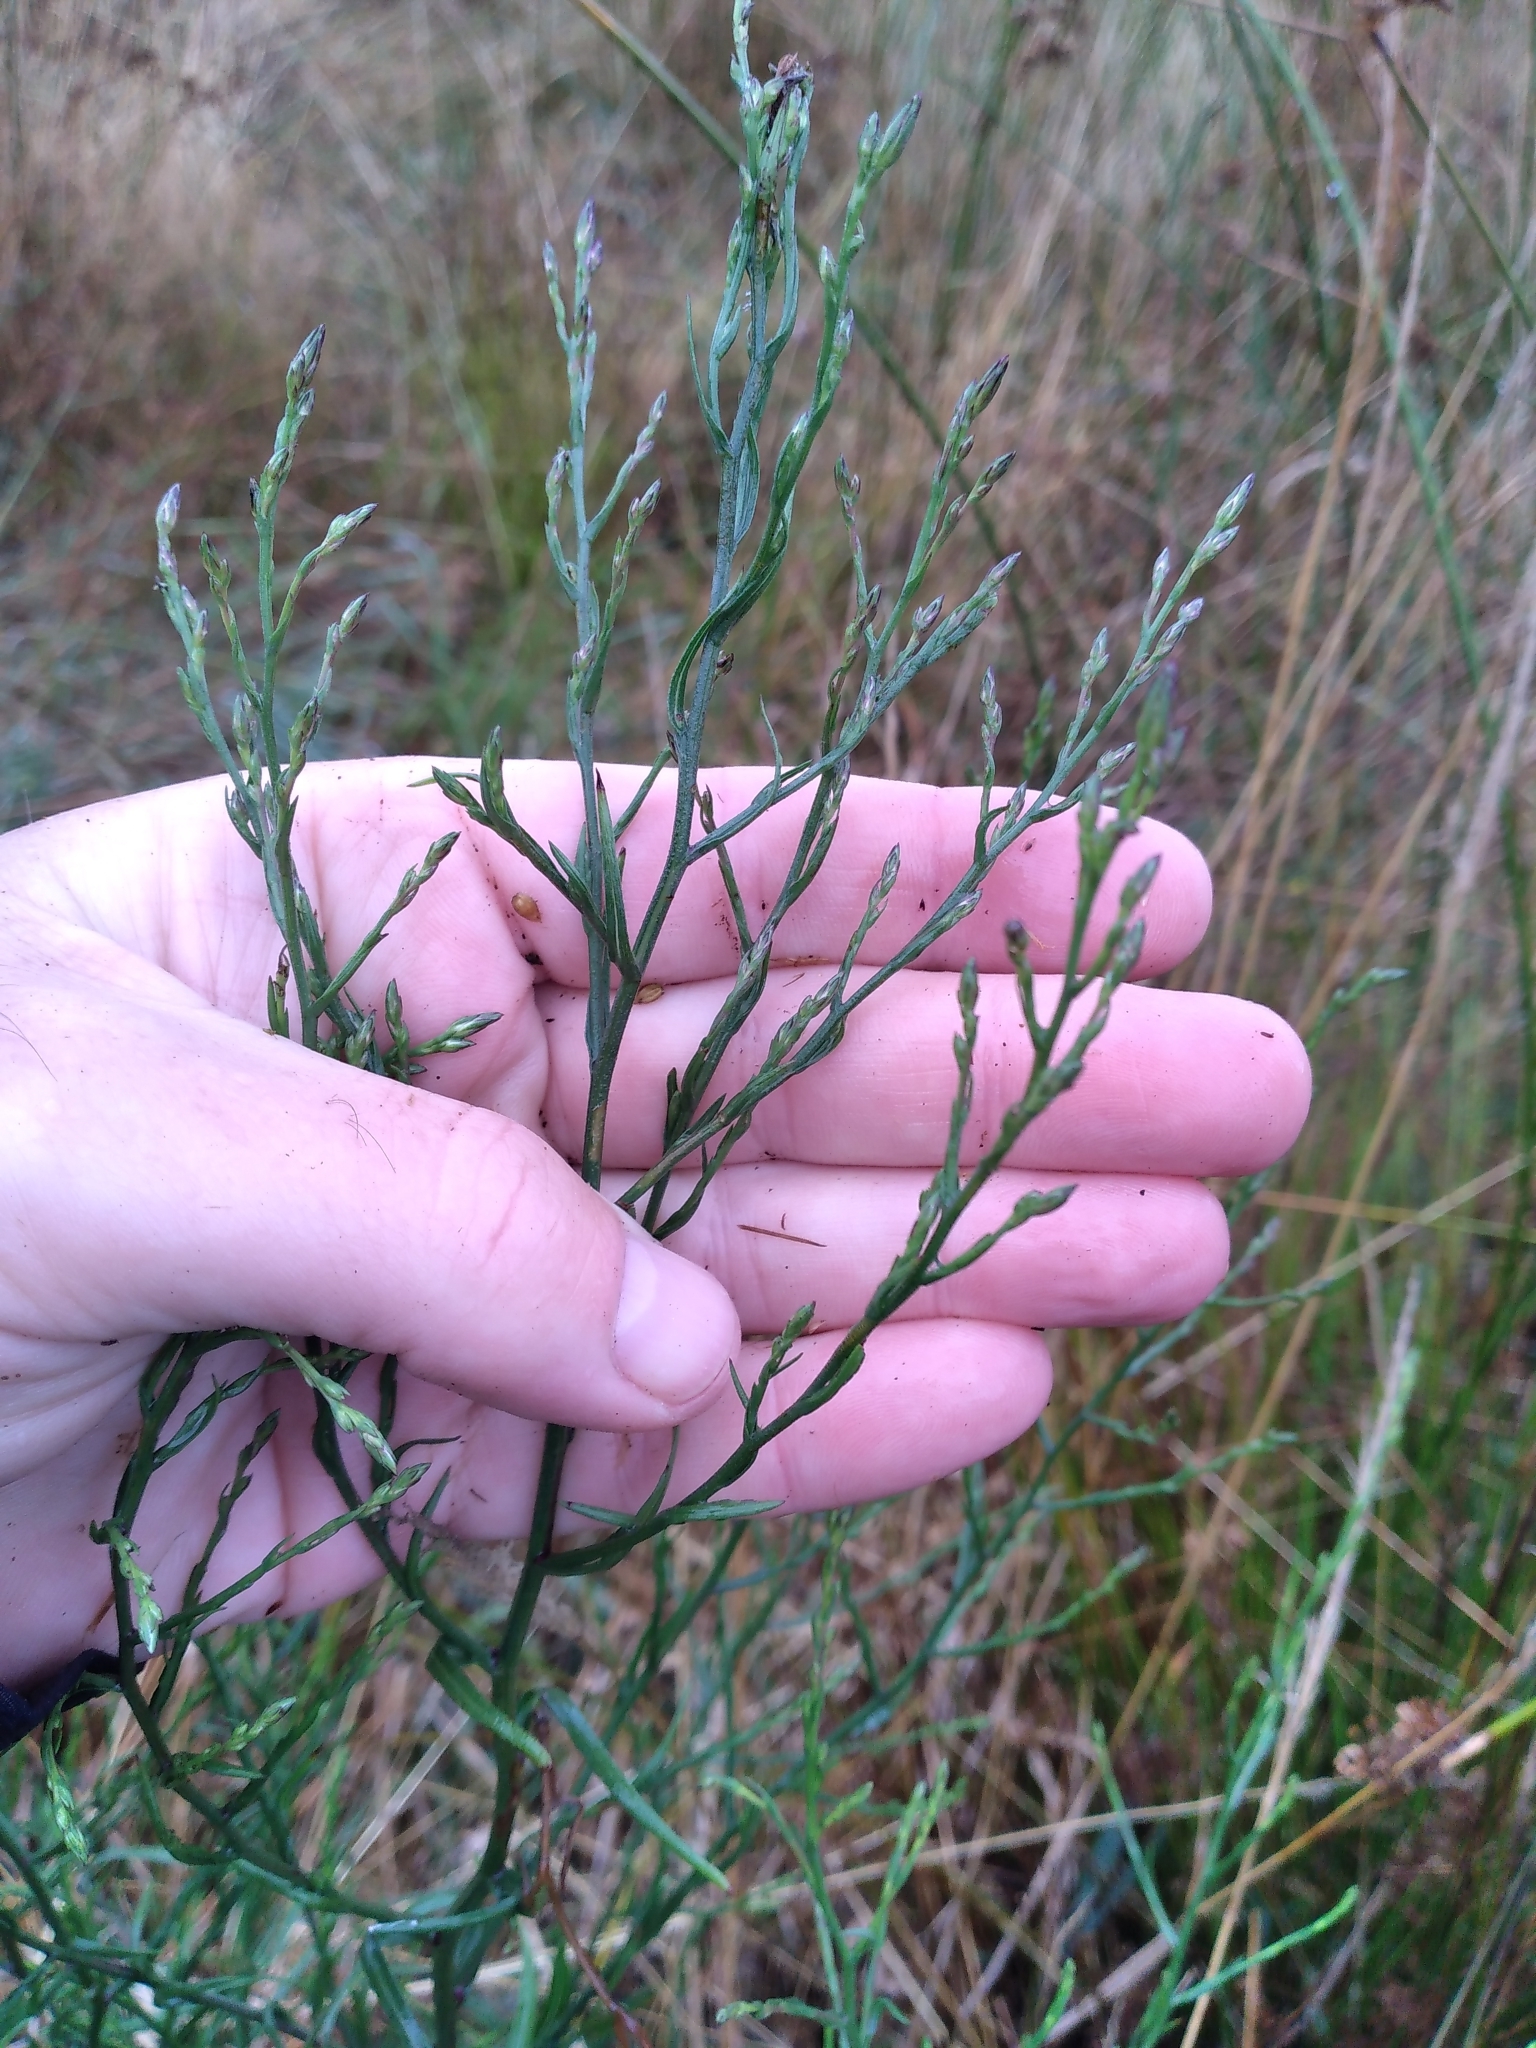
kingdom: Plantae
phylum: Tracheophyta
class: Magnoliopsida
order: Asterales
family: Asteraceae
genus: Symphyotrichum
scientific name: Symphyotrichum subulatum
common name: Annual saltmarsh aster
